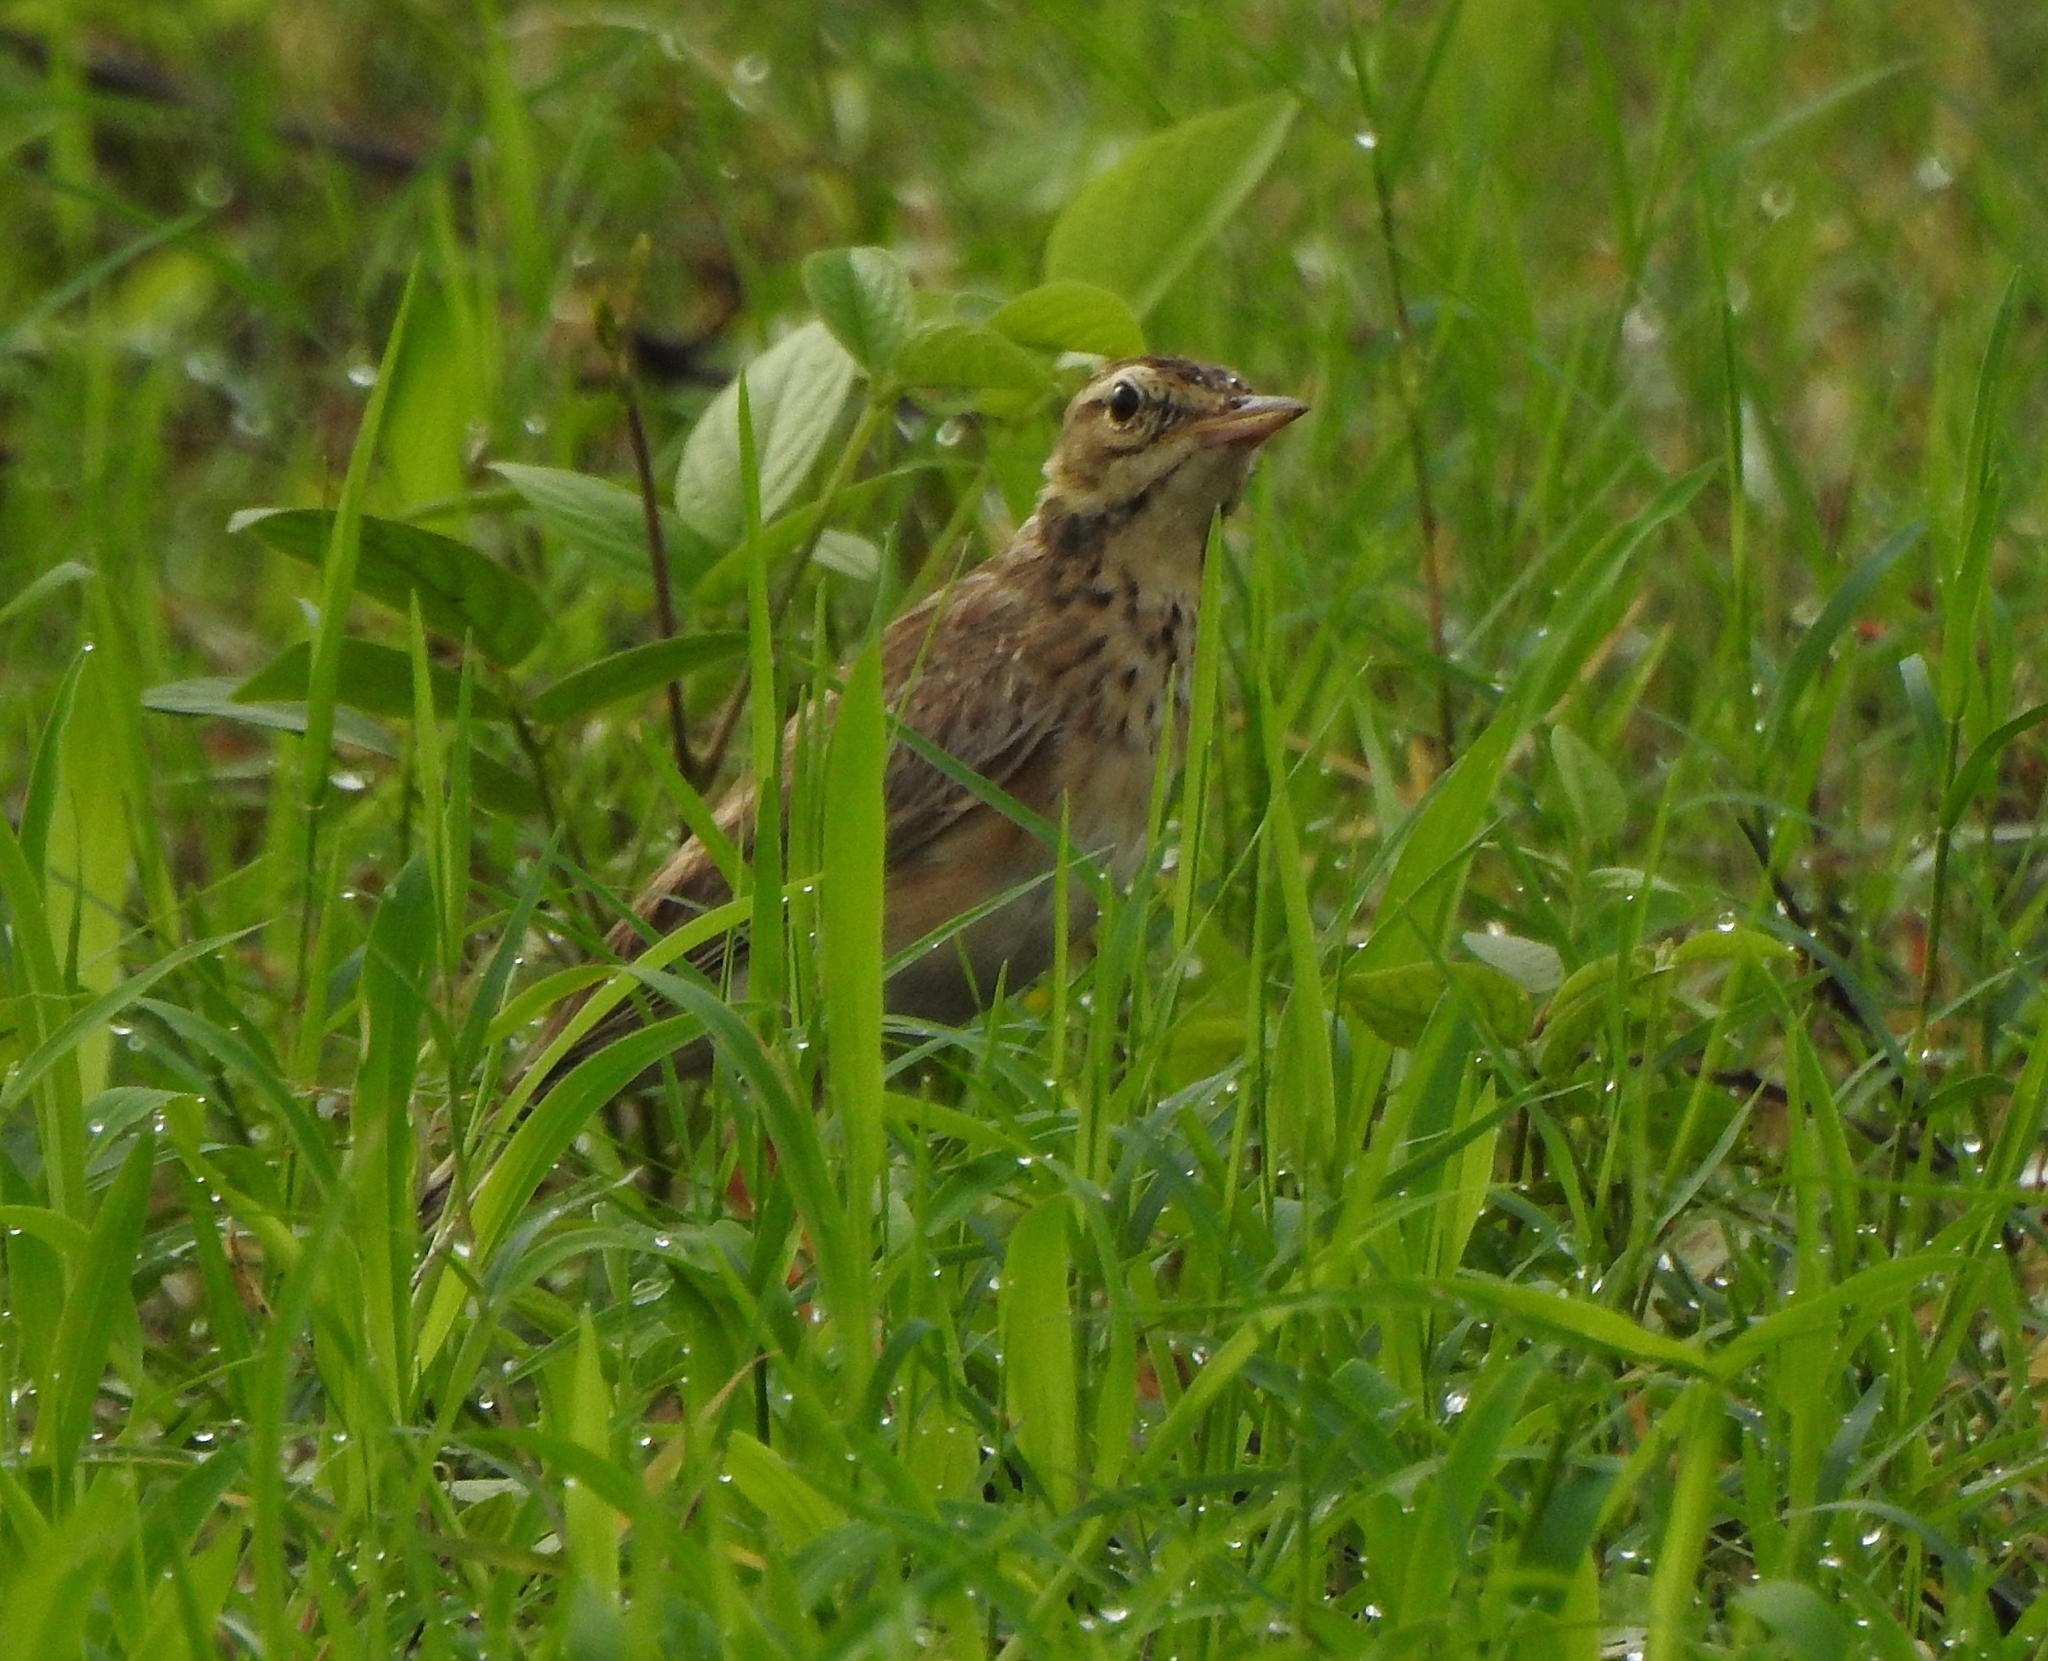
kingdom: Animalia
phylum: Chordata
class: Aves
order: Passeriformes
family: Motacillidae
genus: Anthus
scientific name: Anthus rufulus
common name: Paddyfield pipit
